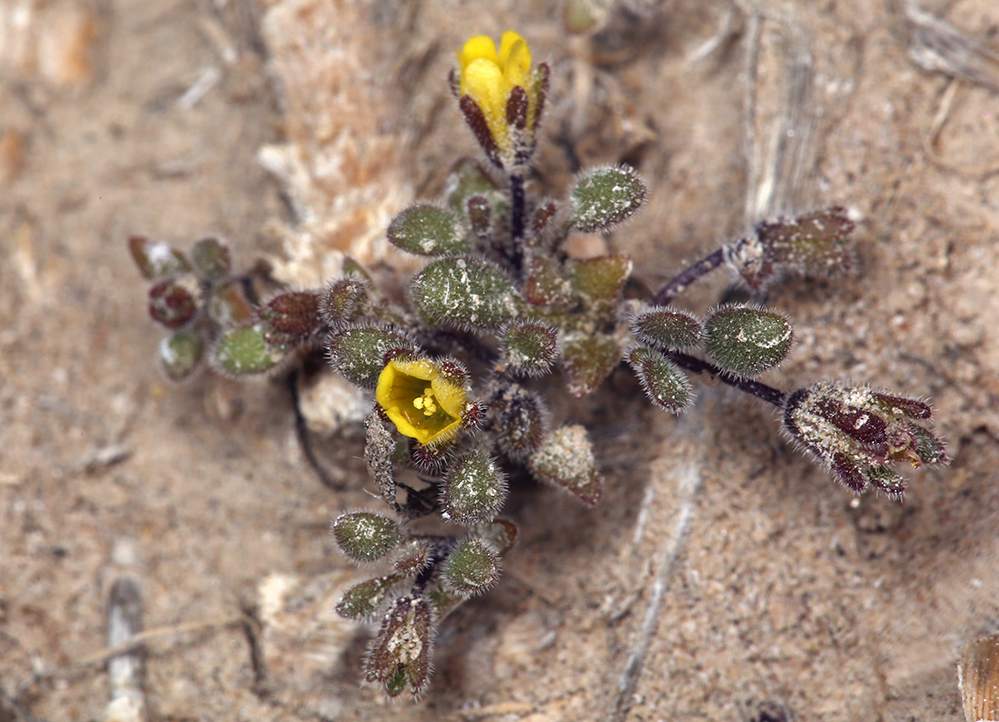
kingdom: Plantae
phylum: Tracheophyta
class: Magnoliopsida
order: Boraginales
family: Hydrophyllaceae
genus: Phacelia
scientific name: Phacelia inyoensis
